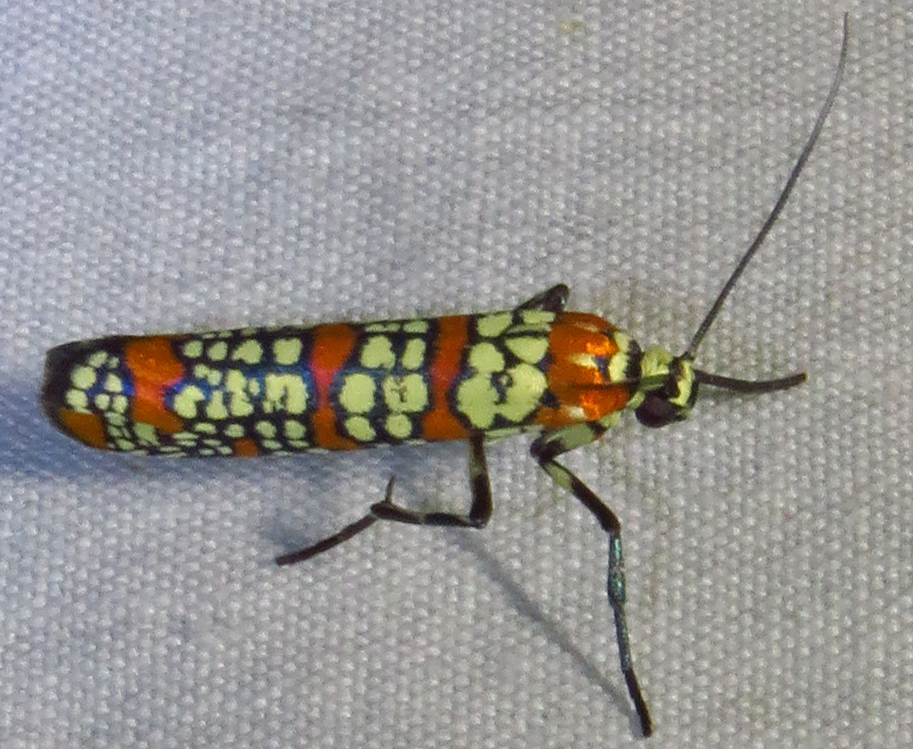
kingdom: Animalia
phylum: Arthropoda
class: Insecta
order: Lepidoptera
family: Attevidae
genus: Atteva
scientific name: Atteva punctella
